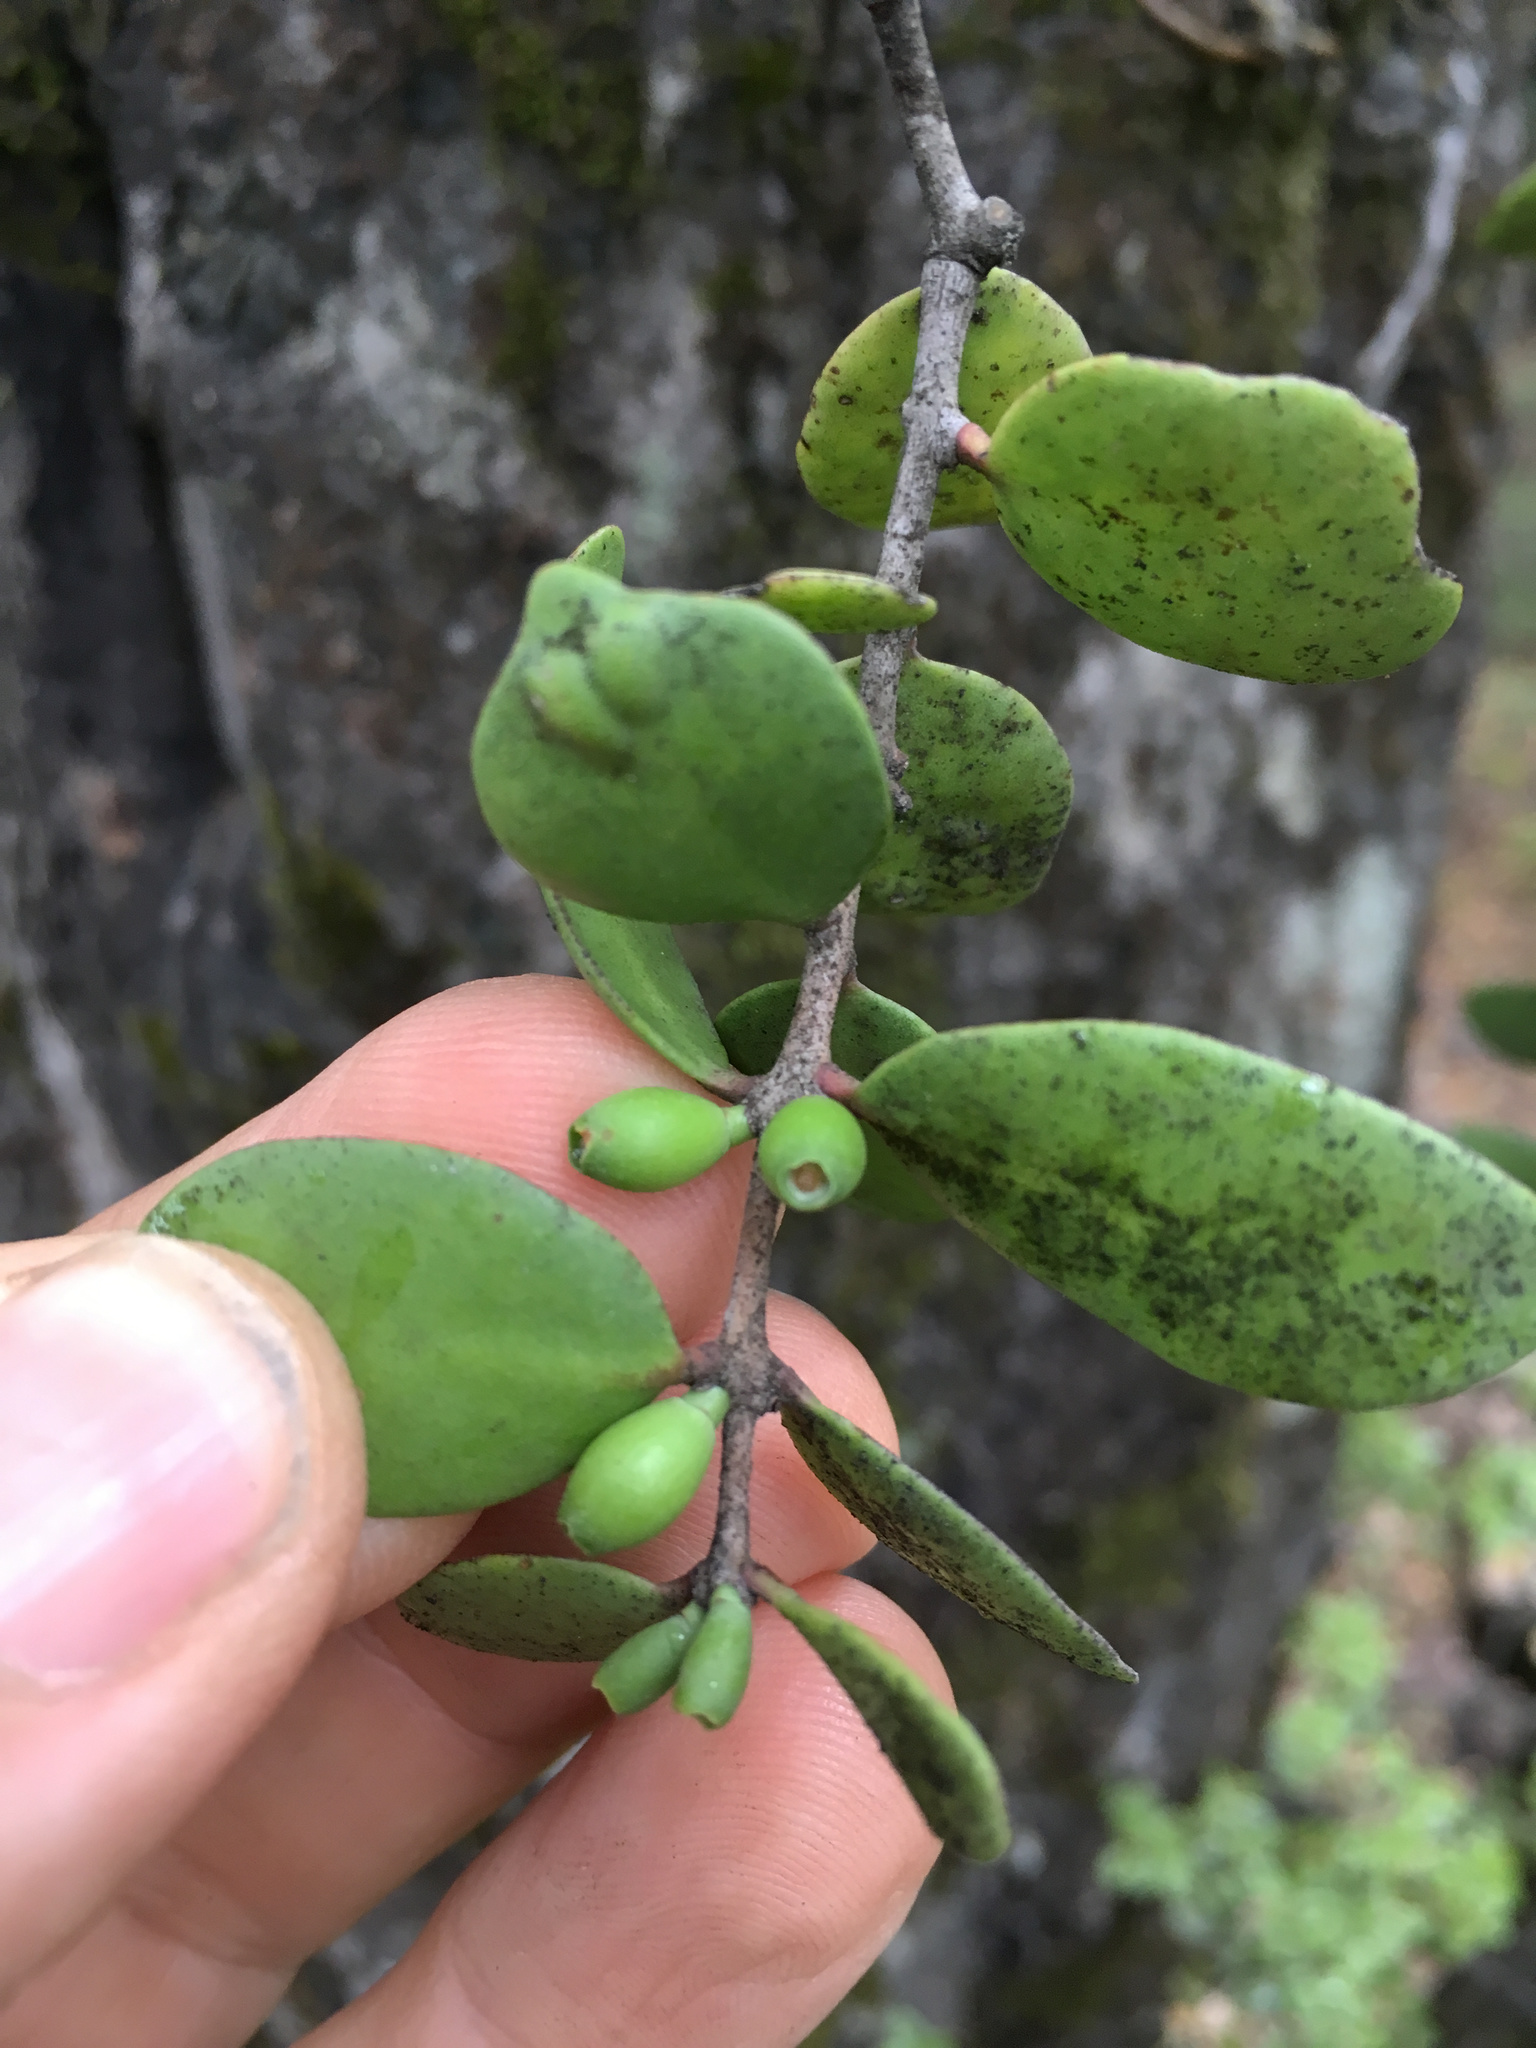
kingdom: Plantae
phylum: Tracheophyta
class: Magnoliopsida
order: Santalales
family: Loranthaceae
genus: Peraxilla
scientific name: Peraxilla tetrapetala
